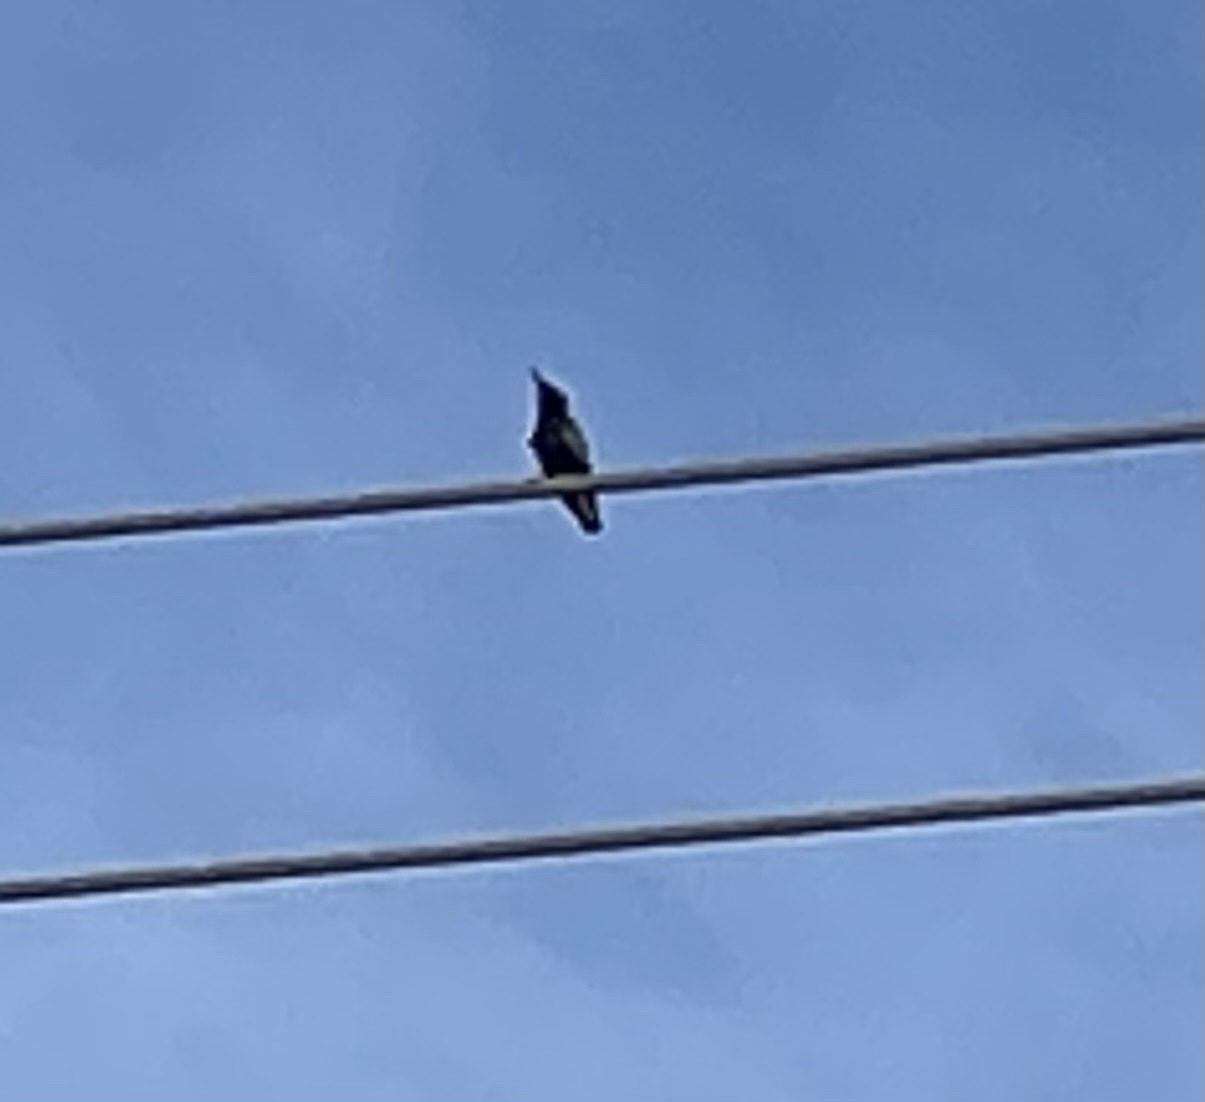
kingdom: Animalia
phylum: Chordata
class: Aves
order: Passeriformes
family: Sturnidae
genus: Sturnus
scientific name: Sturnus vulgaris
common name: Common starling
